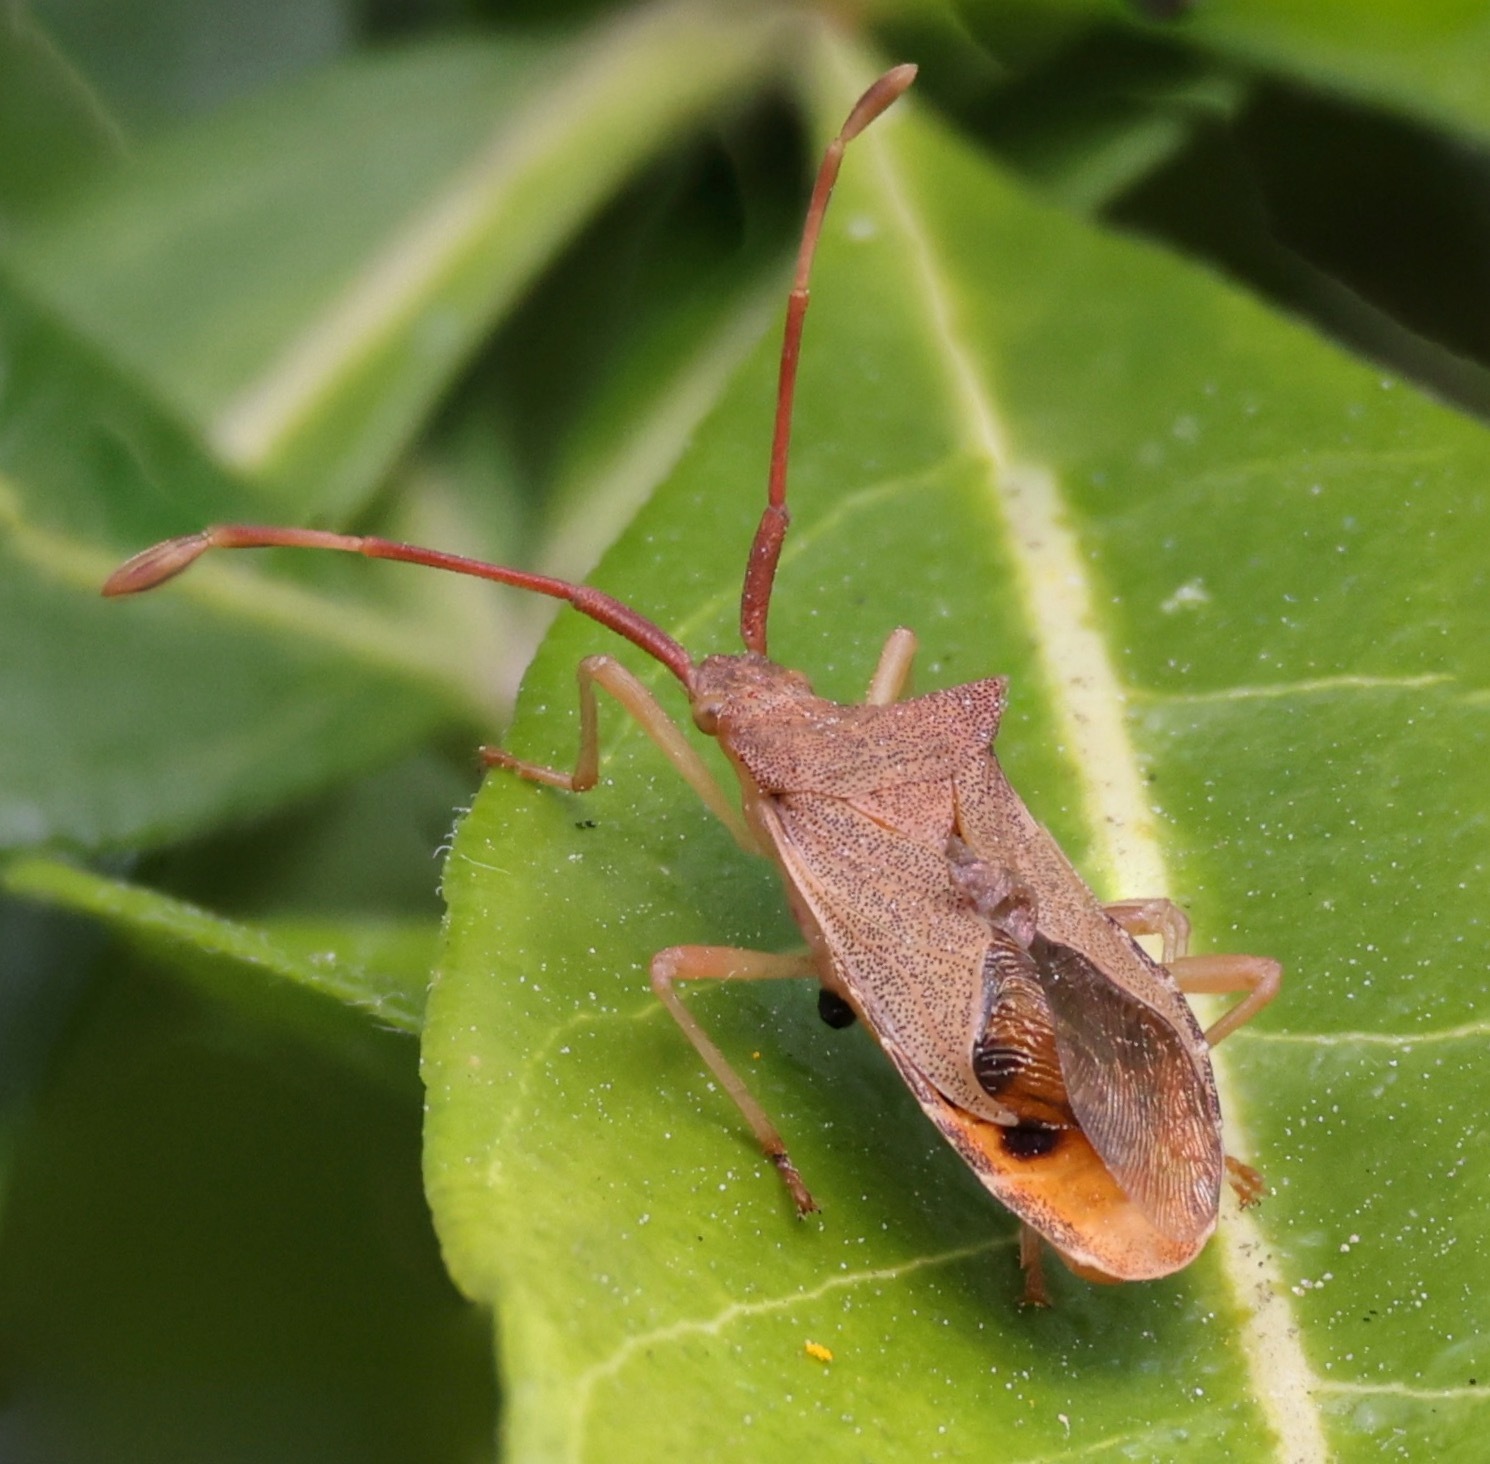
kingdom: Animalia
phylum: Arthropoda
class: Insecta
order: Hemiptera
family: Coreidae
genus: Gonocerus
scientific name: Gonocerus acuteangulatus
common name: Box bug
